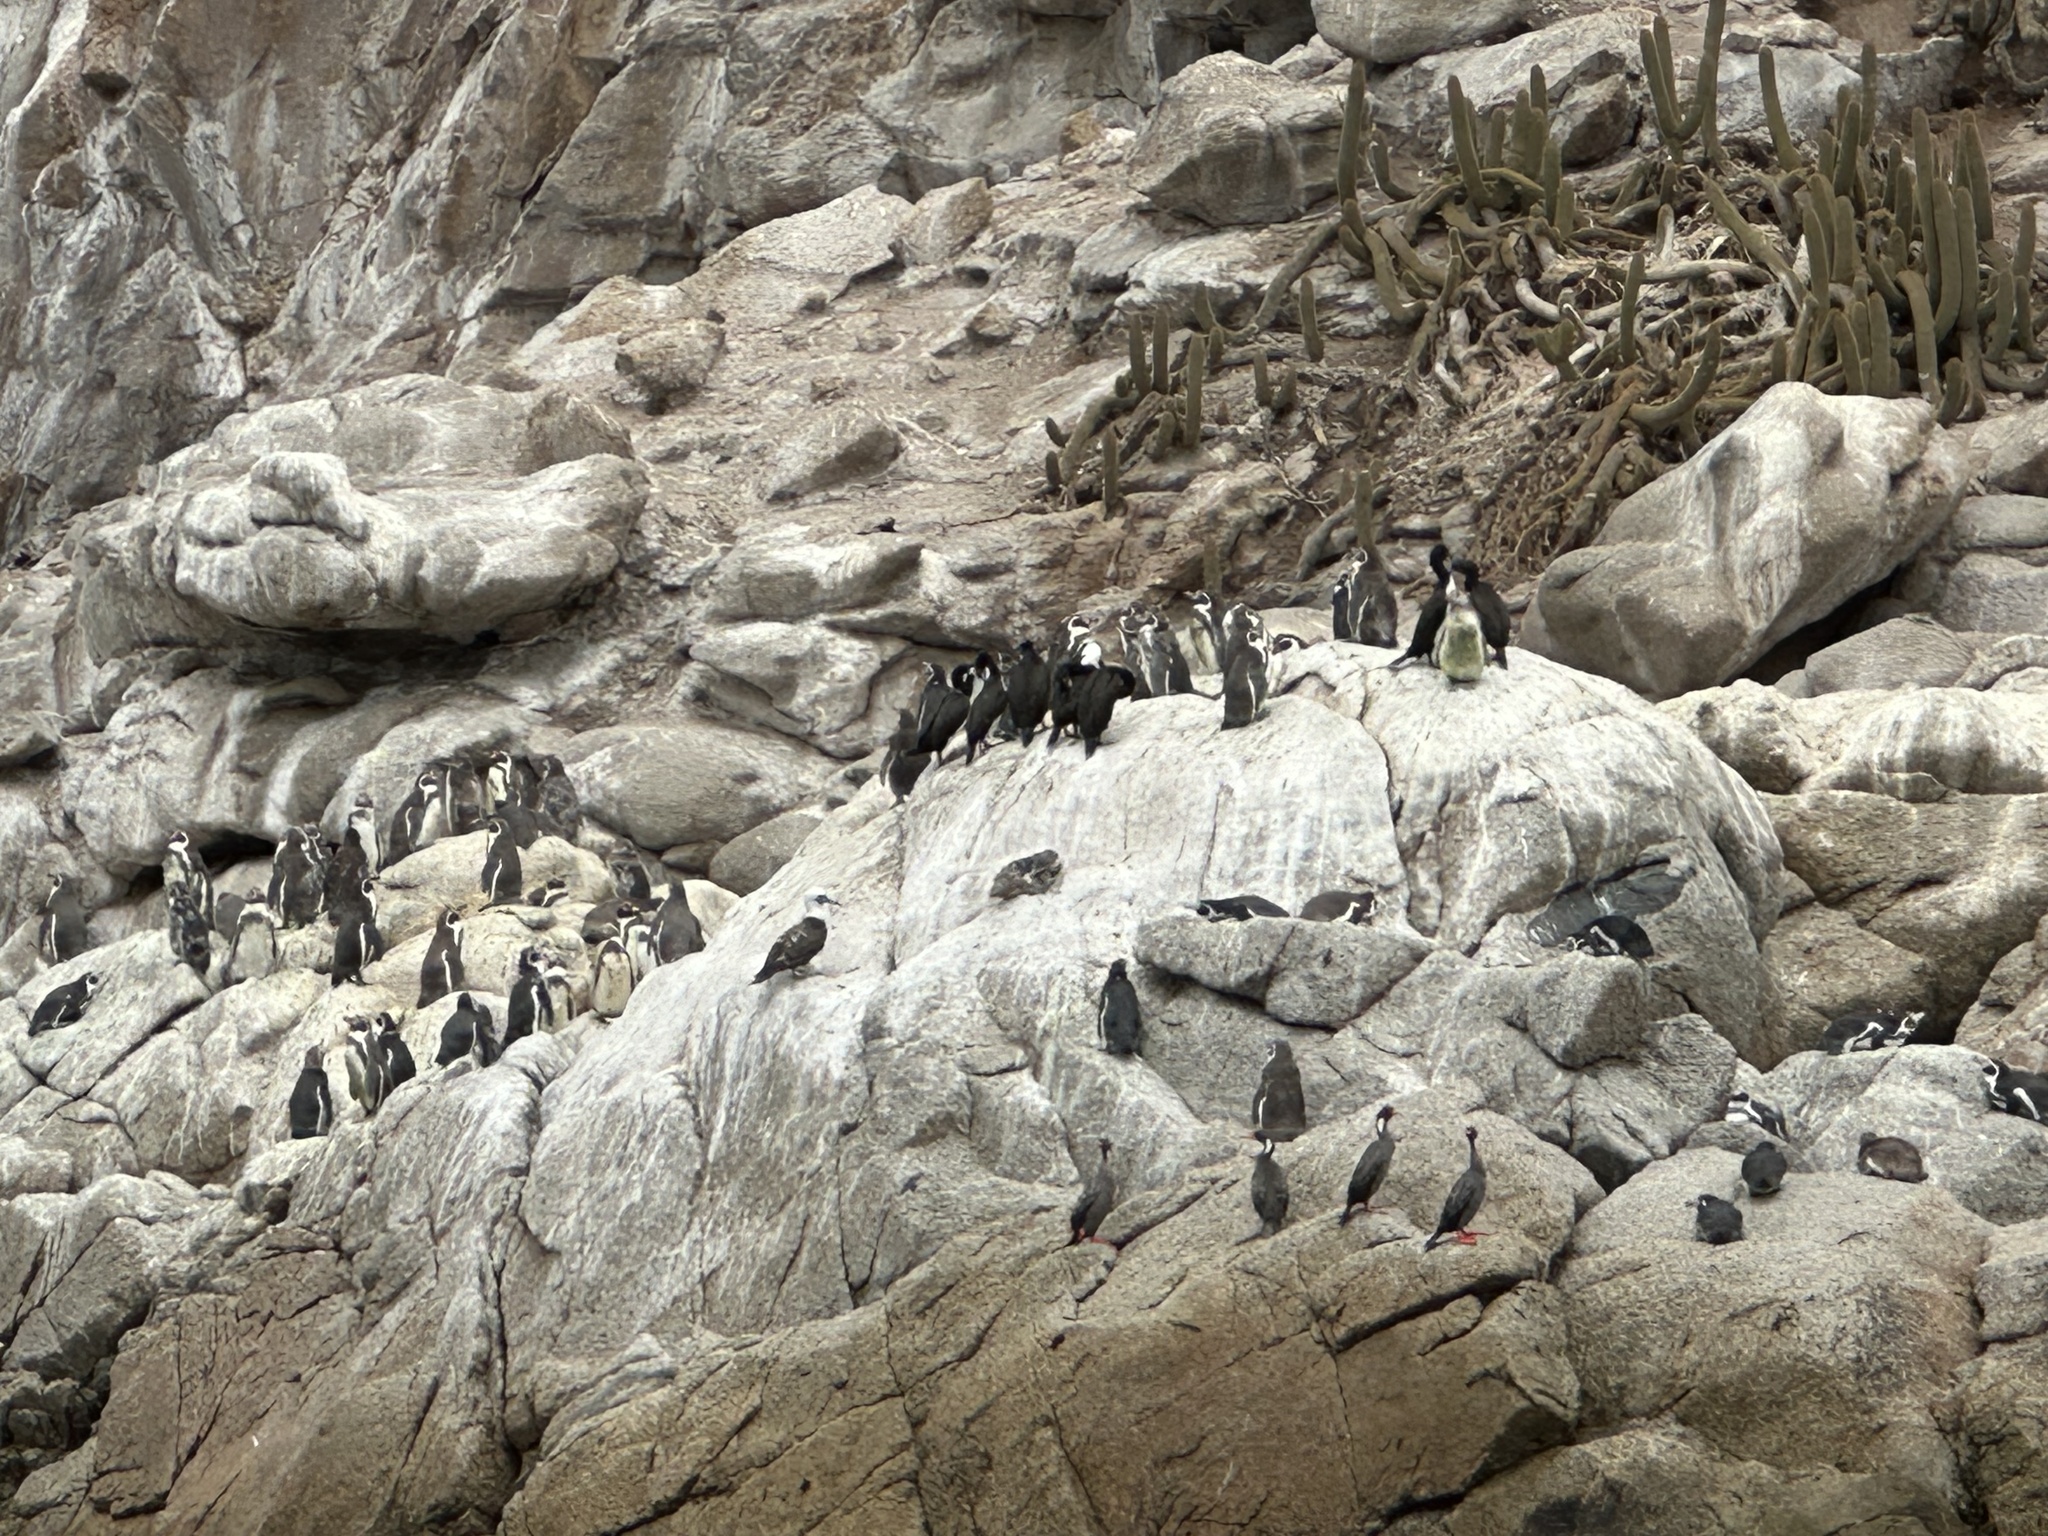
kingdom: Animalia
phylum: Chordata
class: Aves
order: Sphenisciformes
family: Spheniscidae
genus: Spheniscus
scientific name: Spheniscus humboldti
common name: Humboldt penguin
